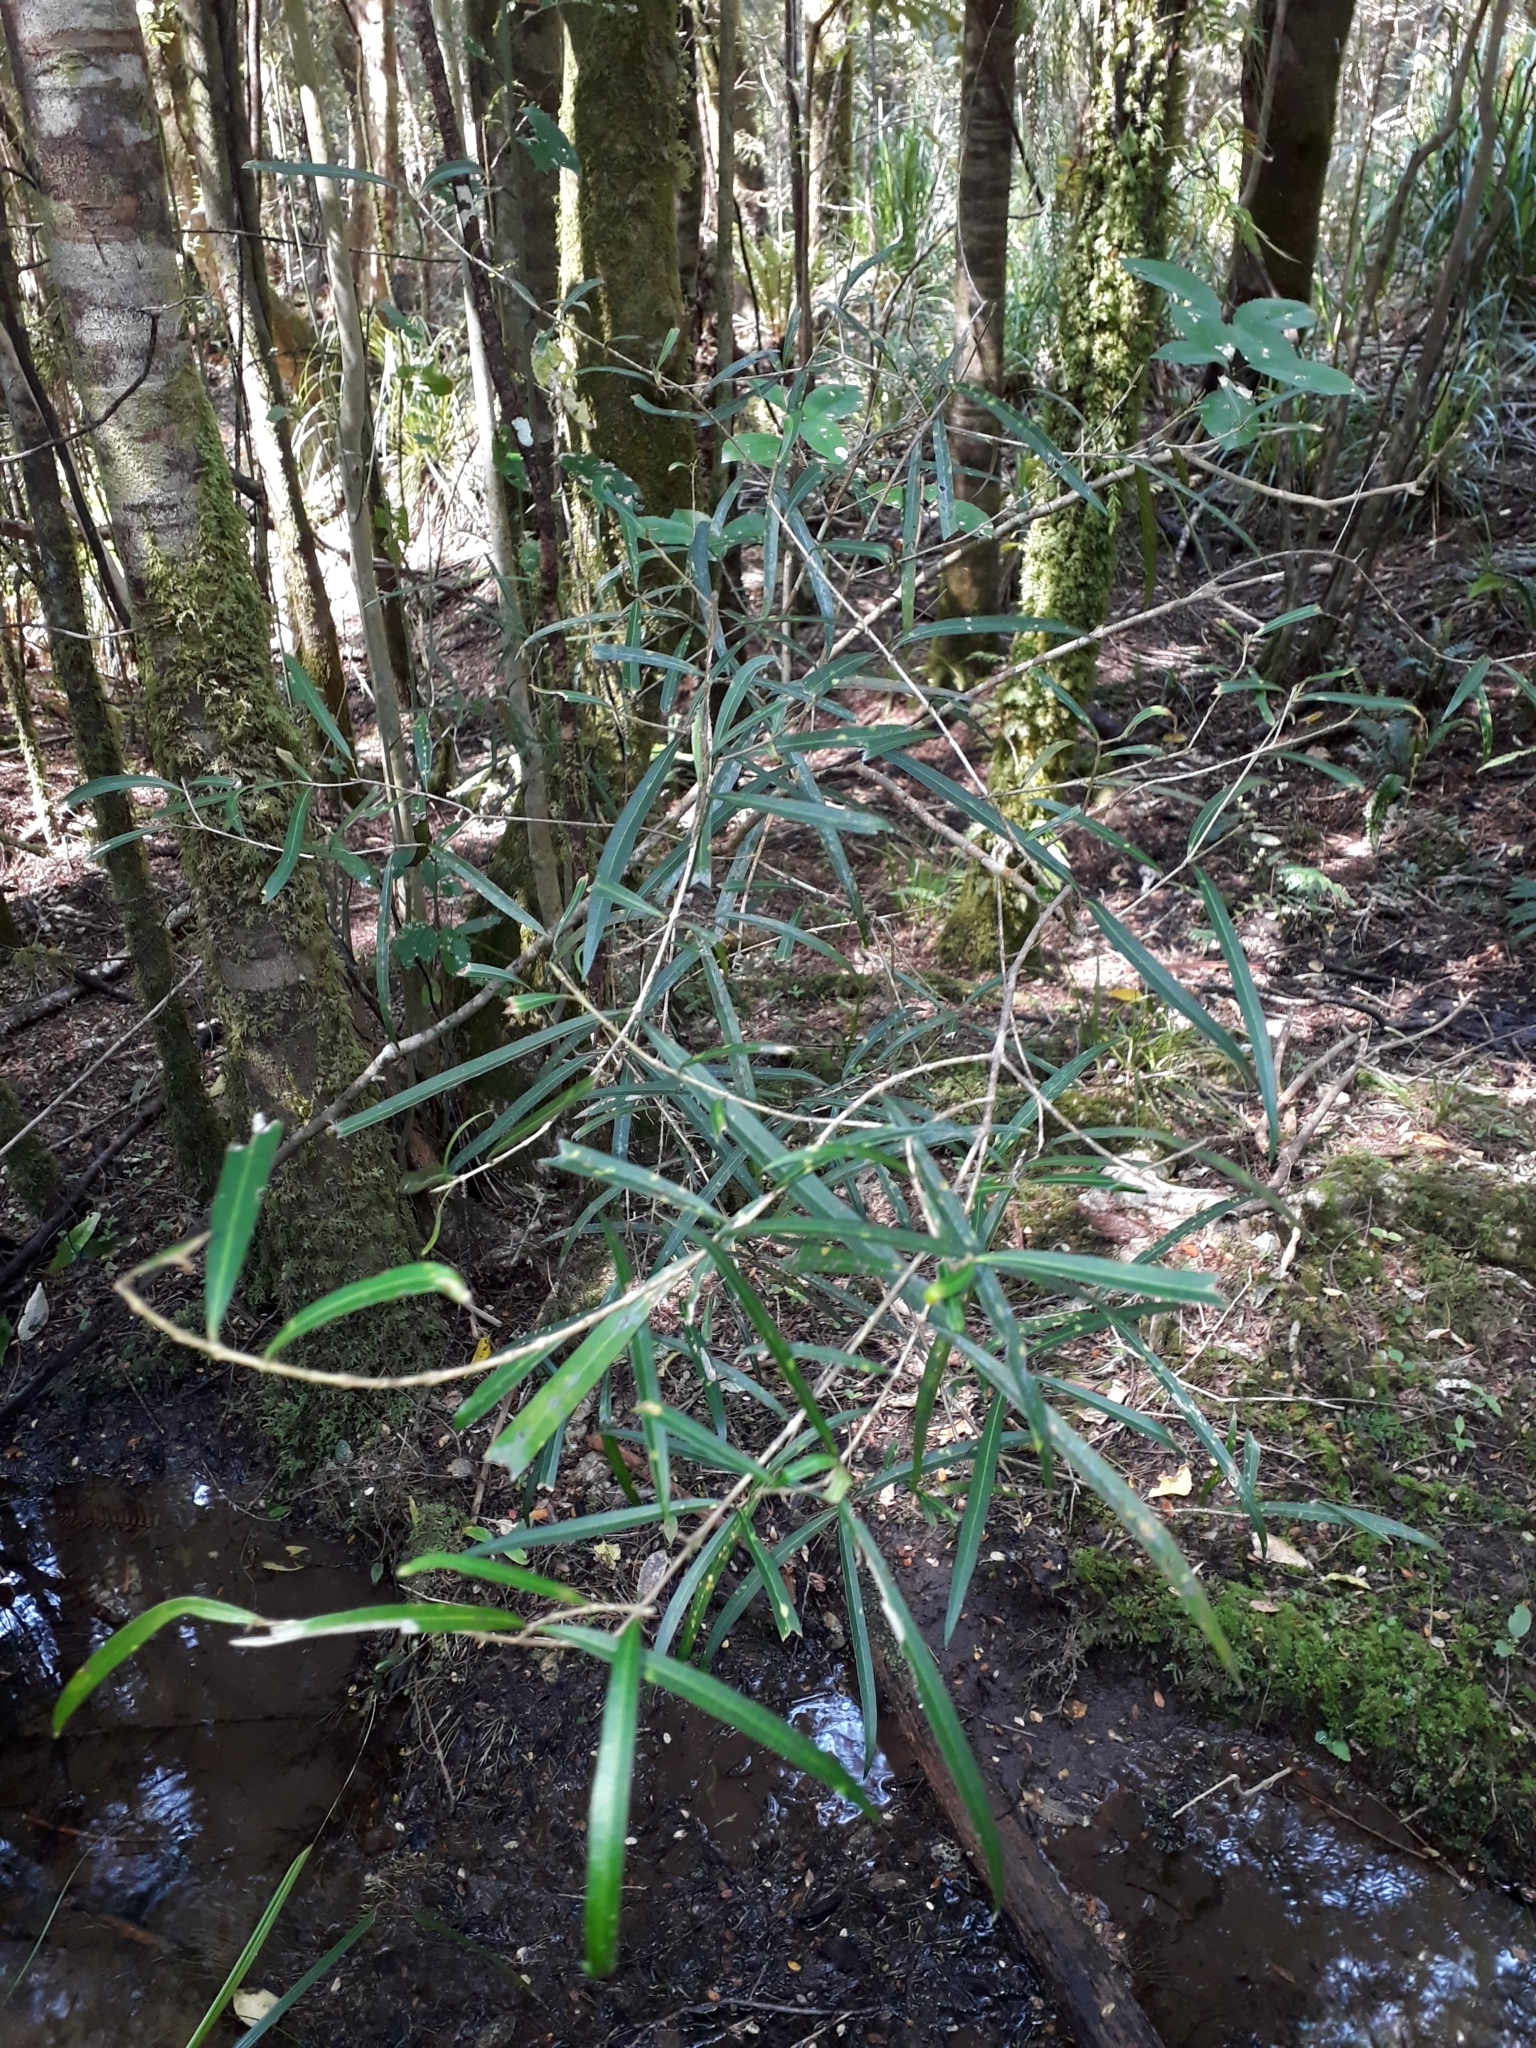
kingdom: Plantae
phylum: Tracheophyta
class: Magnoliopsida
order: Lamiales
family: Oleaceae
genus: Nestegis
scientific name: Nestegis lanceolata
